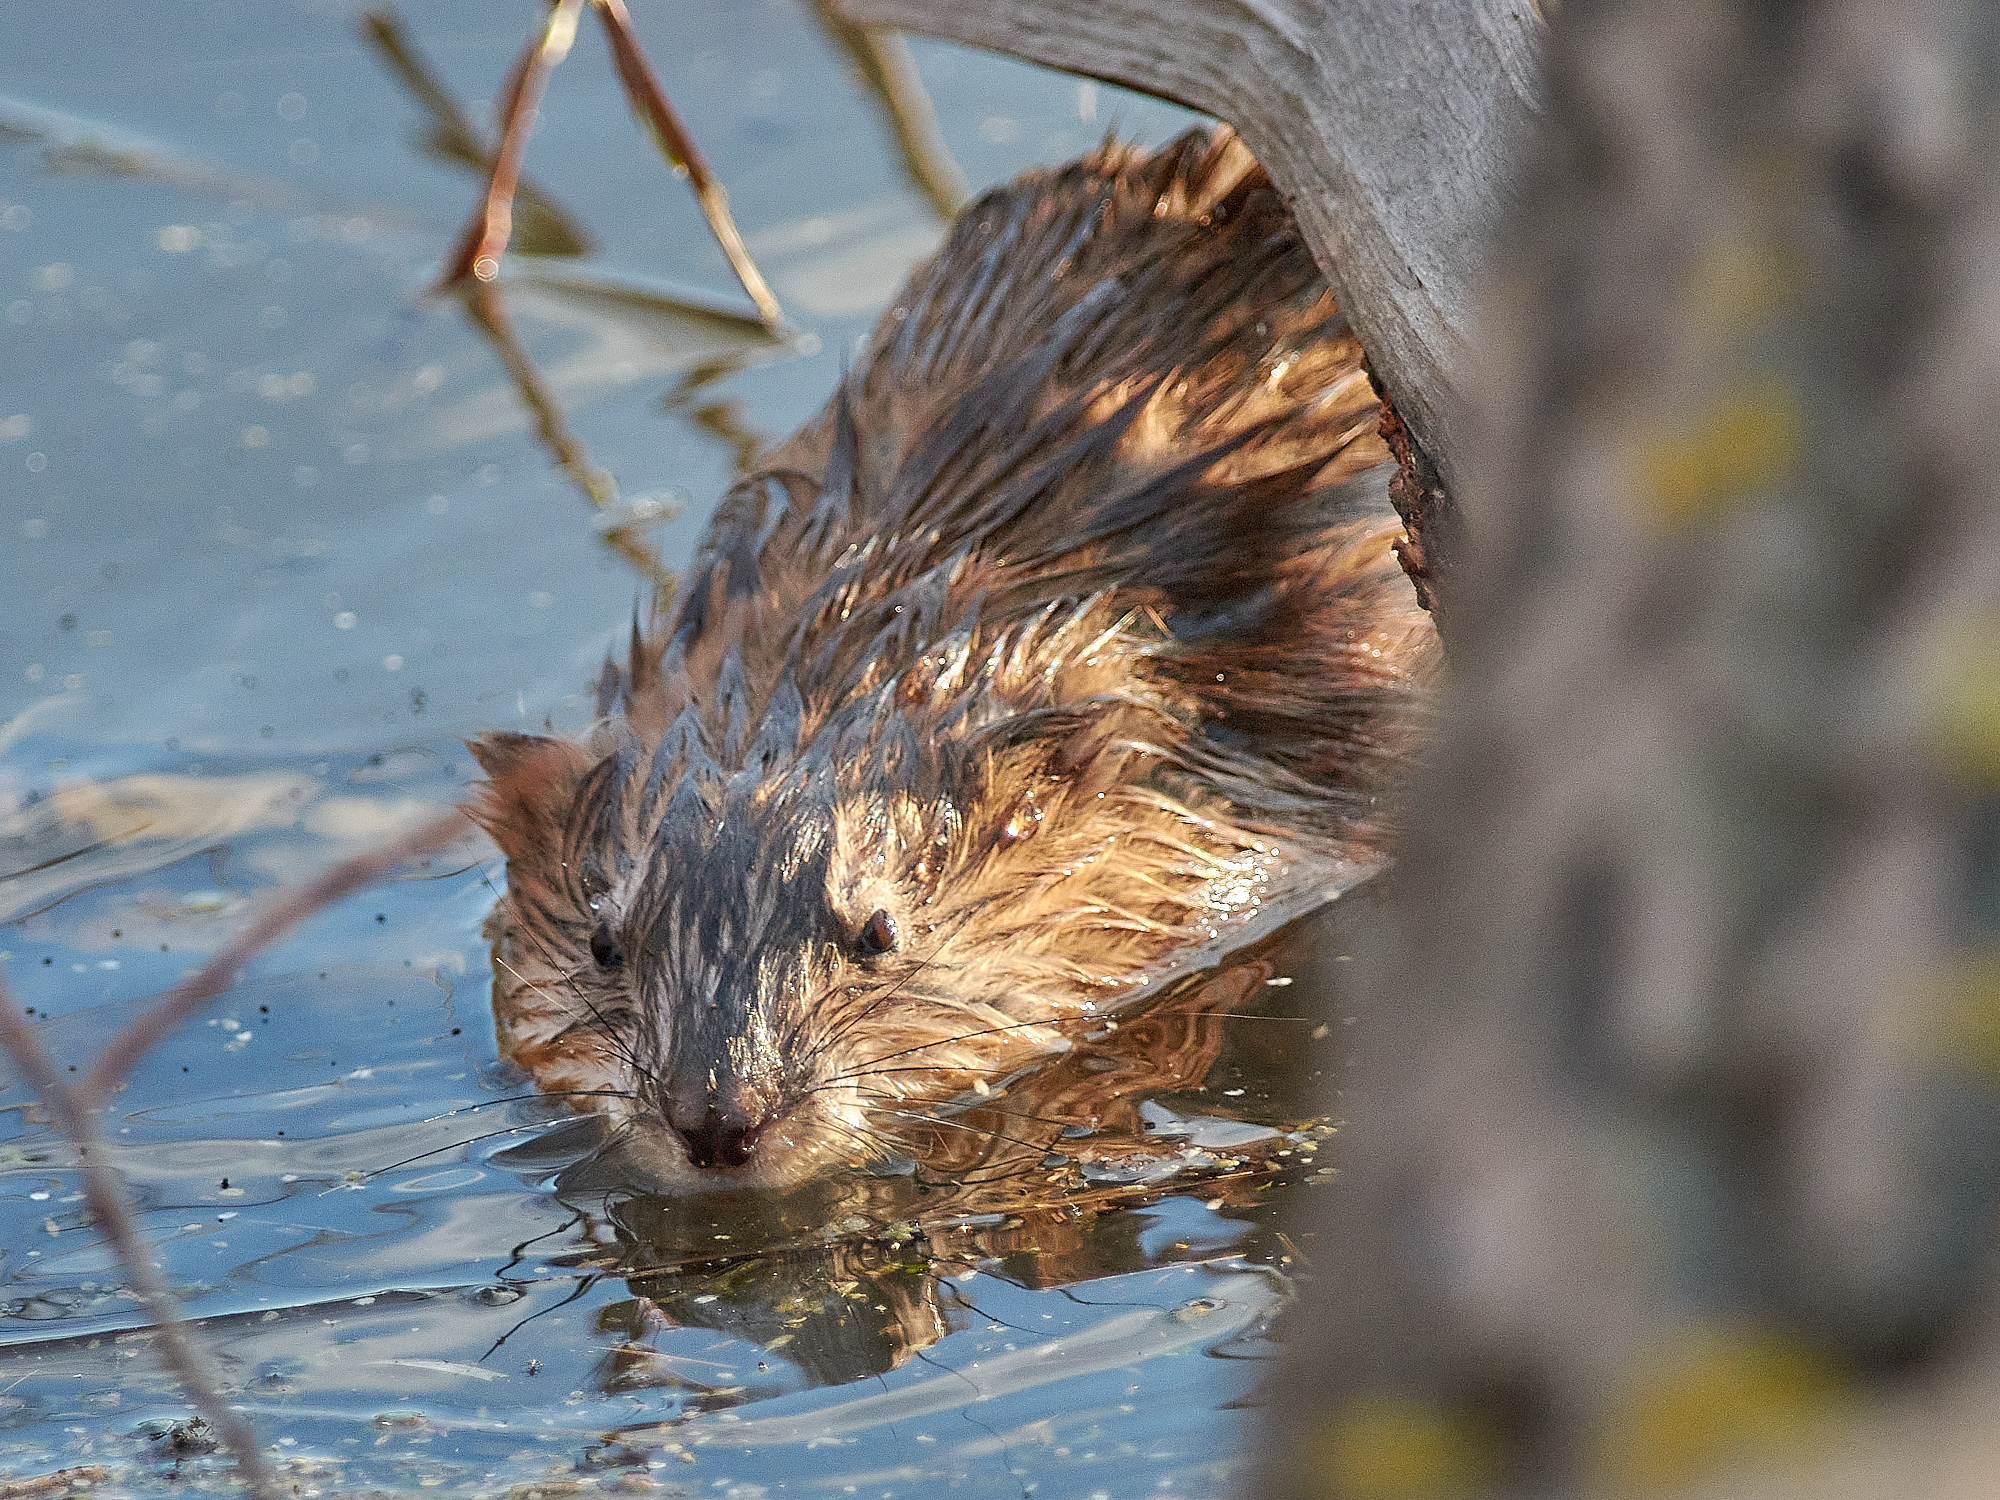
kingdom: Animalia
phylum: Chordata
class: Mammalia
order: Rodentia
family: Cricetidae
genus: Ondatra
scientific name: Ondatra zibethicus
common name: Muskrat
